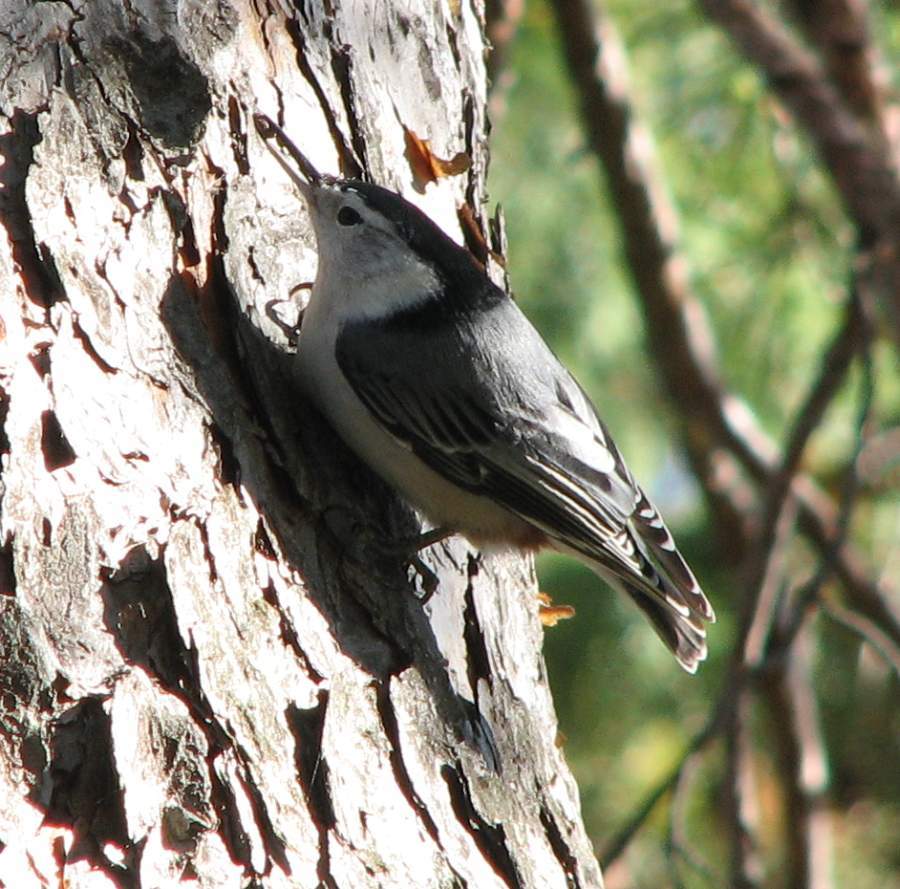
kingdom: Animalia
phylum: Chordata
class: Aves
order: Passeriformes
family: Sittidae
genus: Sitta
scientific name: Sitta carolinensis
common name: White-breasted nuthatch
